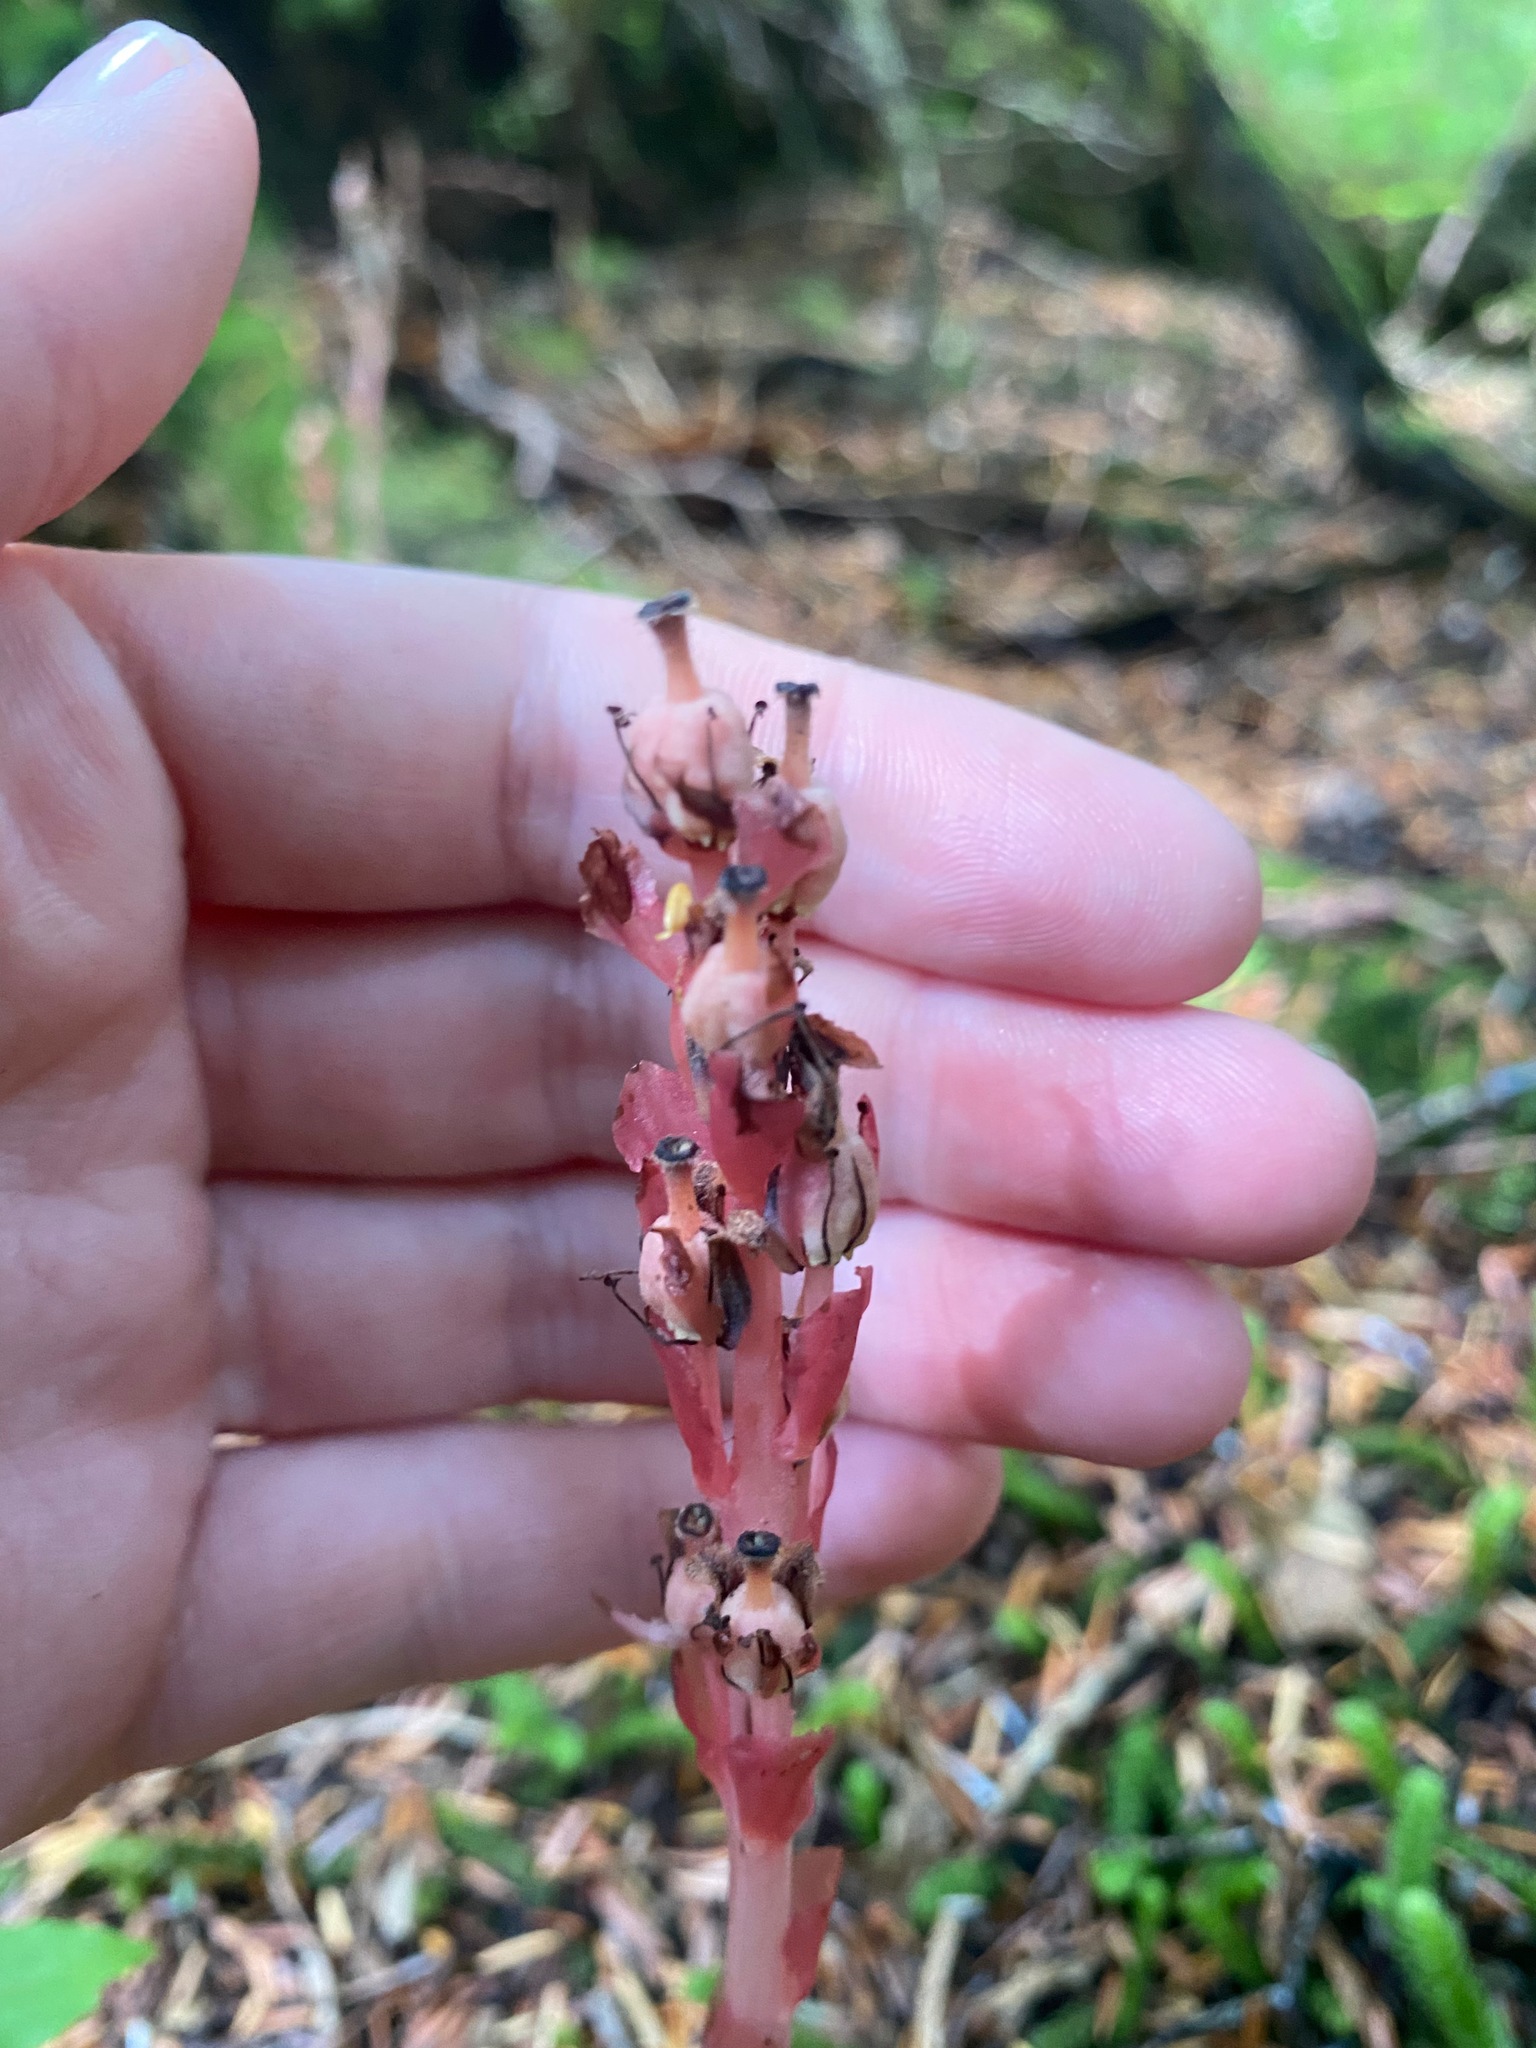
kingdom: Plantae
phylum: Tracheophyta
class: Magnoliopsida
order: Ericales
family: Ericaceae
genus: Hypopitys
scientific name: Hypopitys monotropa
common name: Yellow bird's-nest
